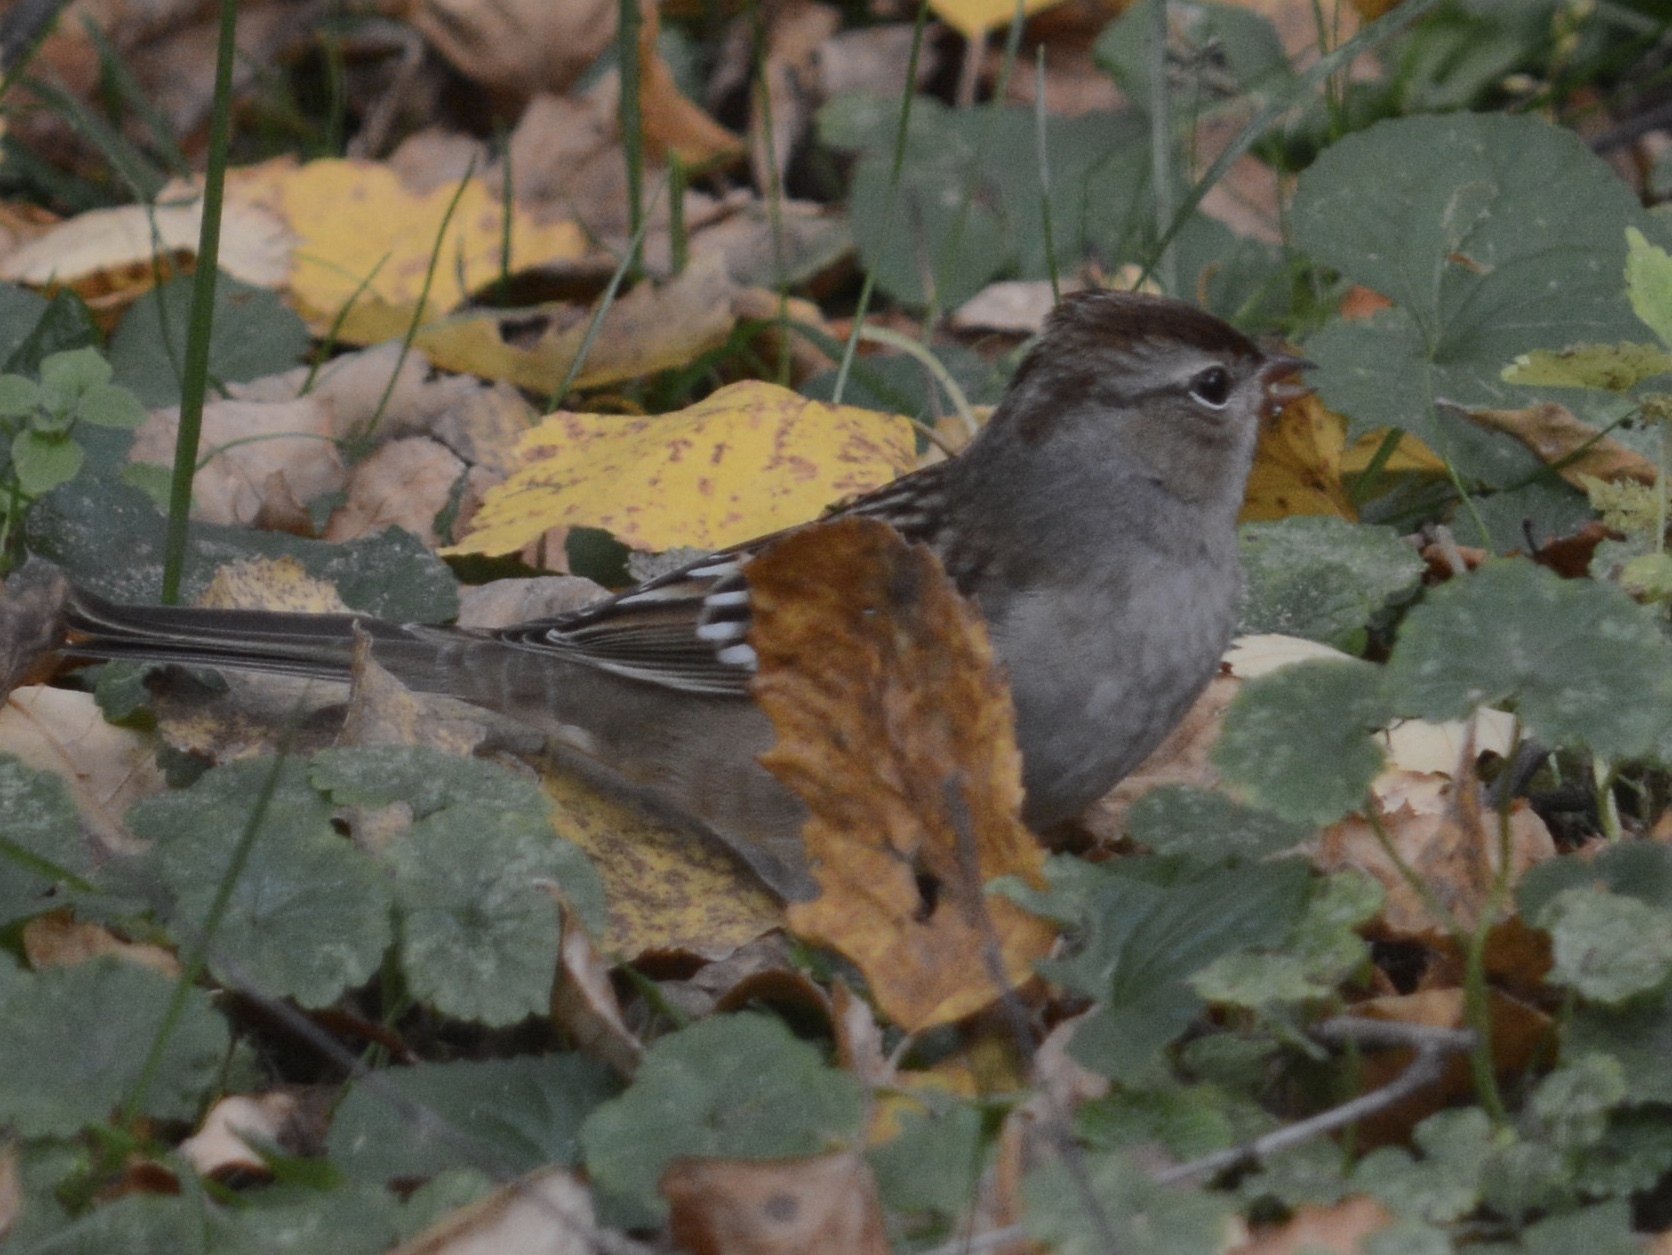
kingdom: Animalia
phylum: Chordata
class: Aves
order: Passeriformes
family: Passerellidae
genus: Zonotrichia
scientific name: Zonotrichia leucophrys
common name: White-crowned sparrow
